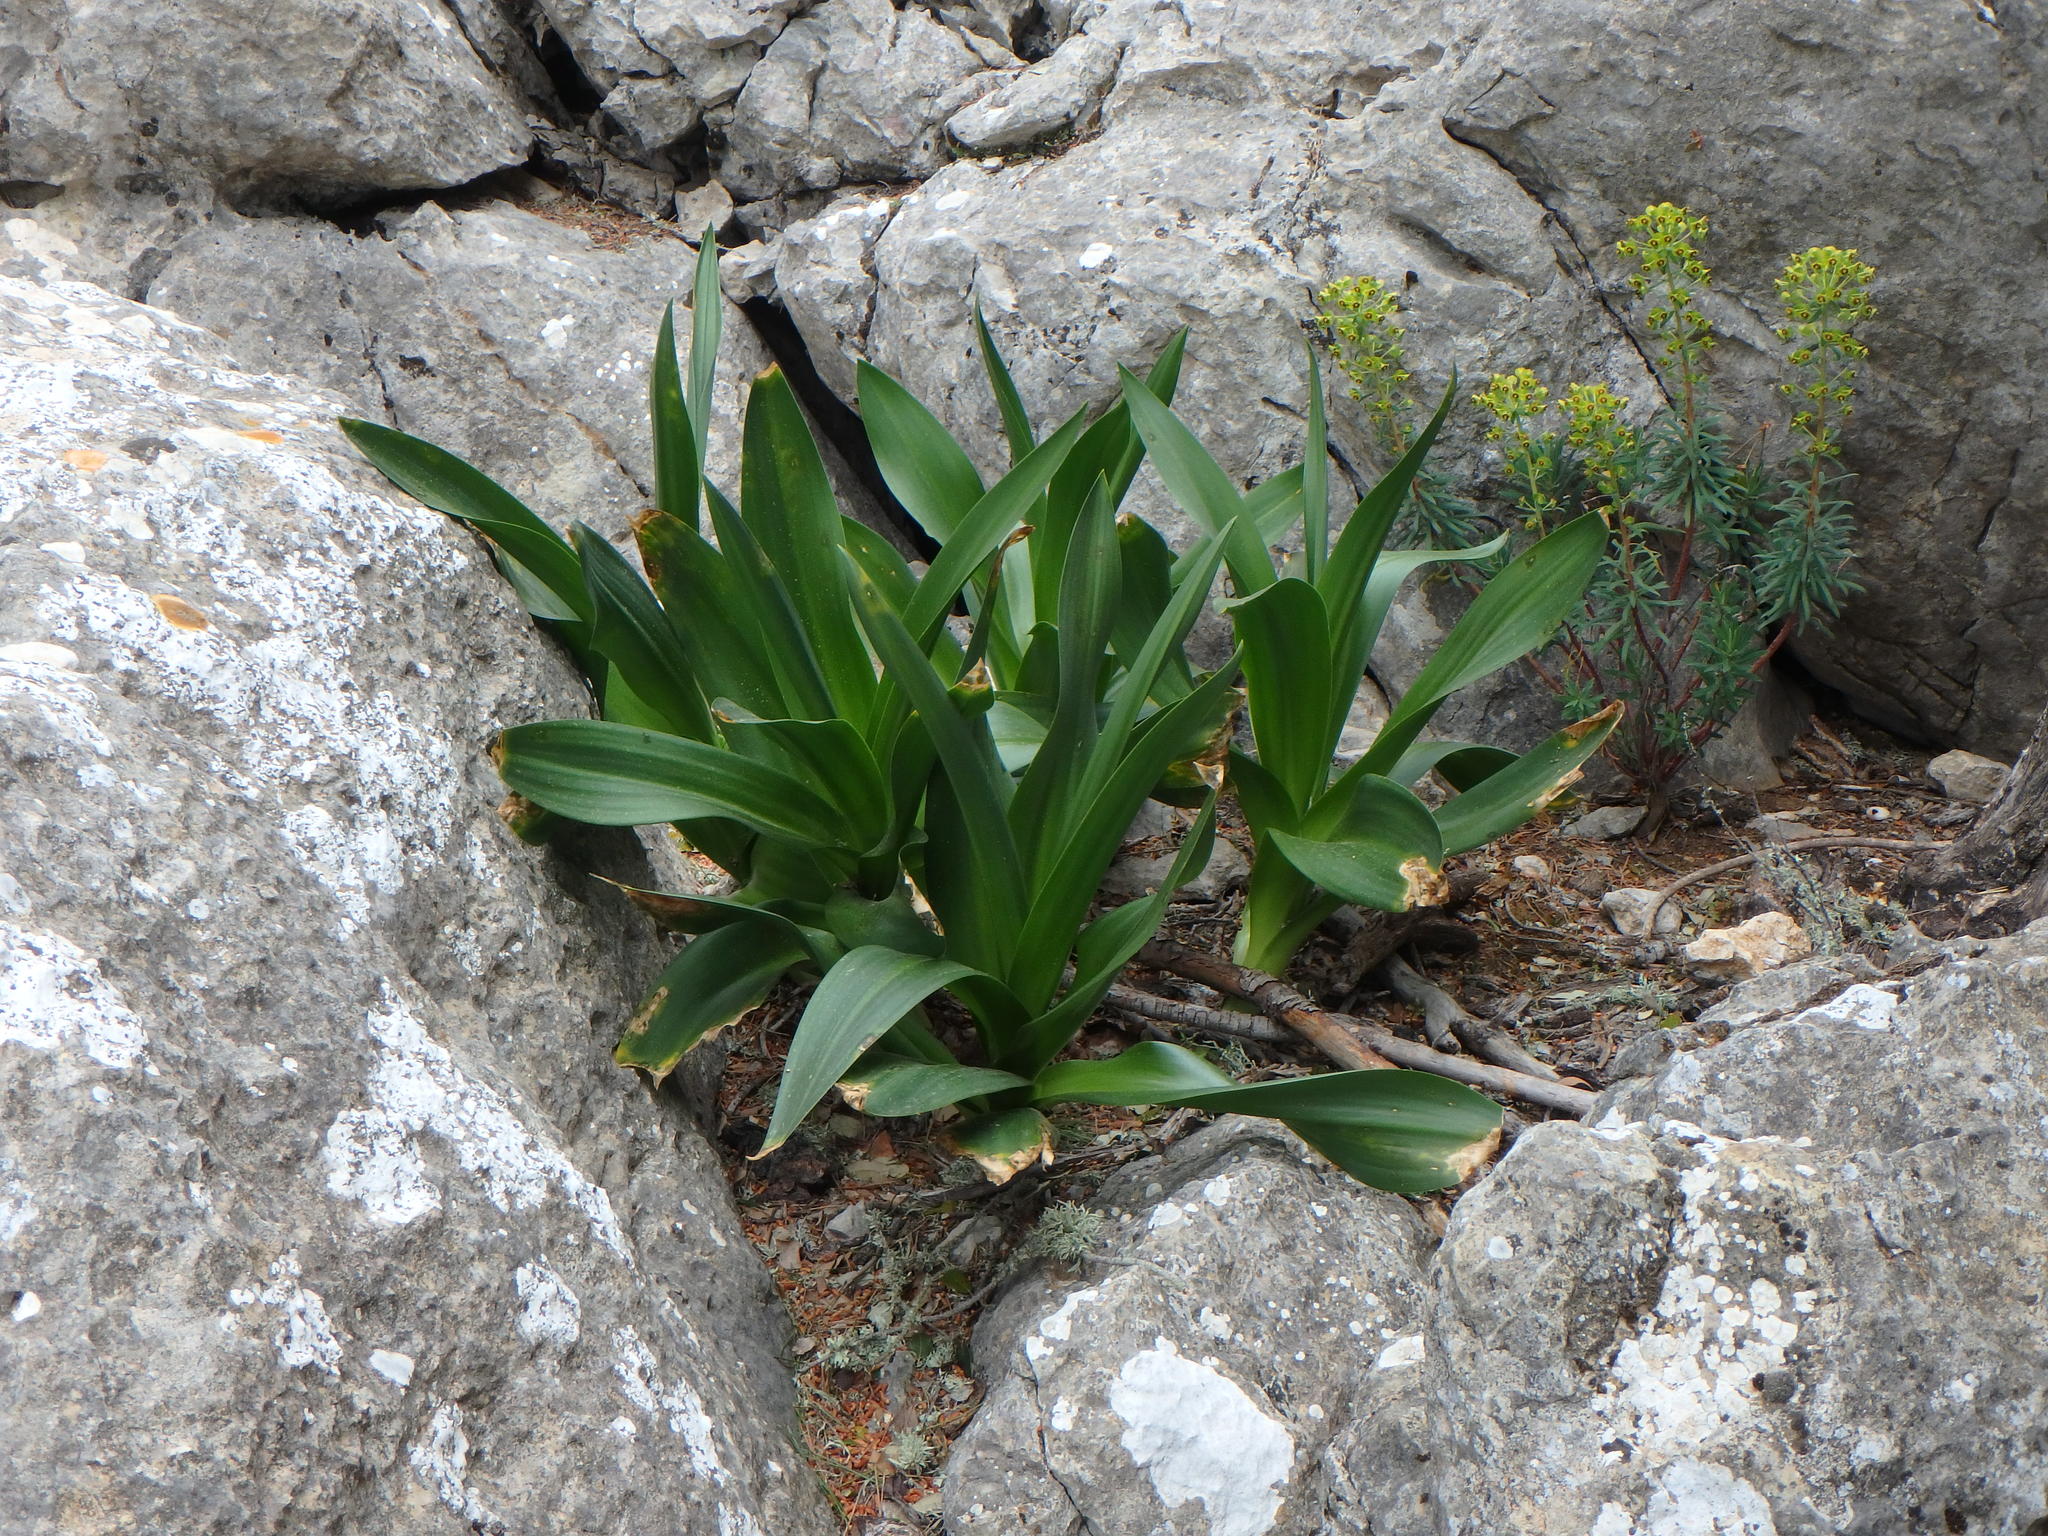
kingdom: Plantae
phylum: Tracheophyta
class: Liliopsida
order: Asparagales
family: Asparagaceae
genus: Drimia
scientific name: Drimia maritima
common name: Maritime squill
